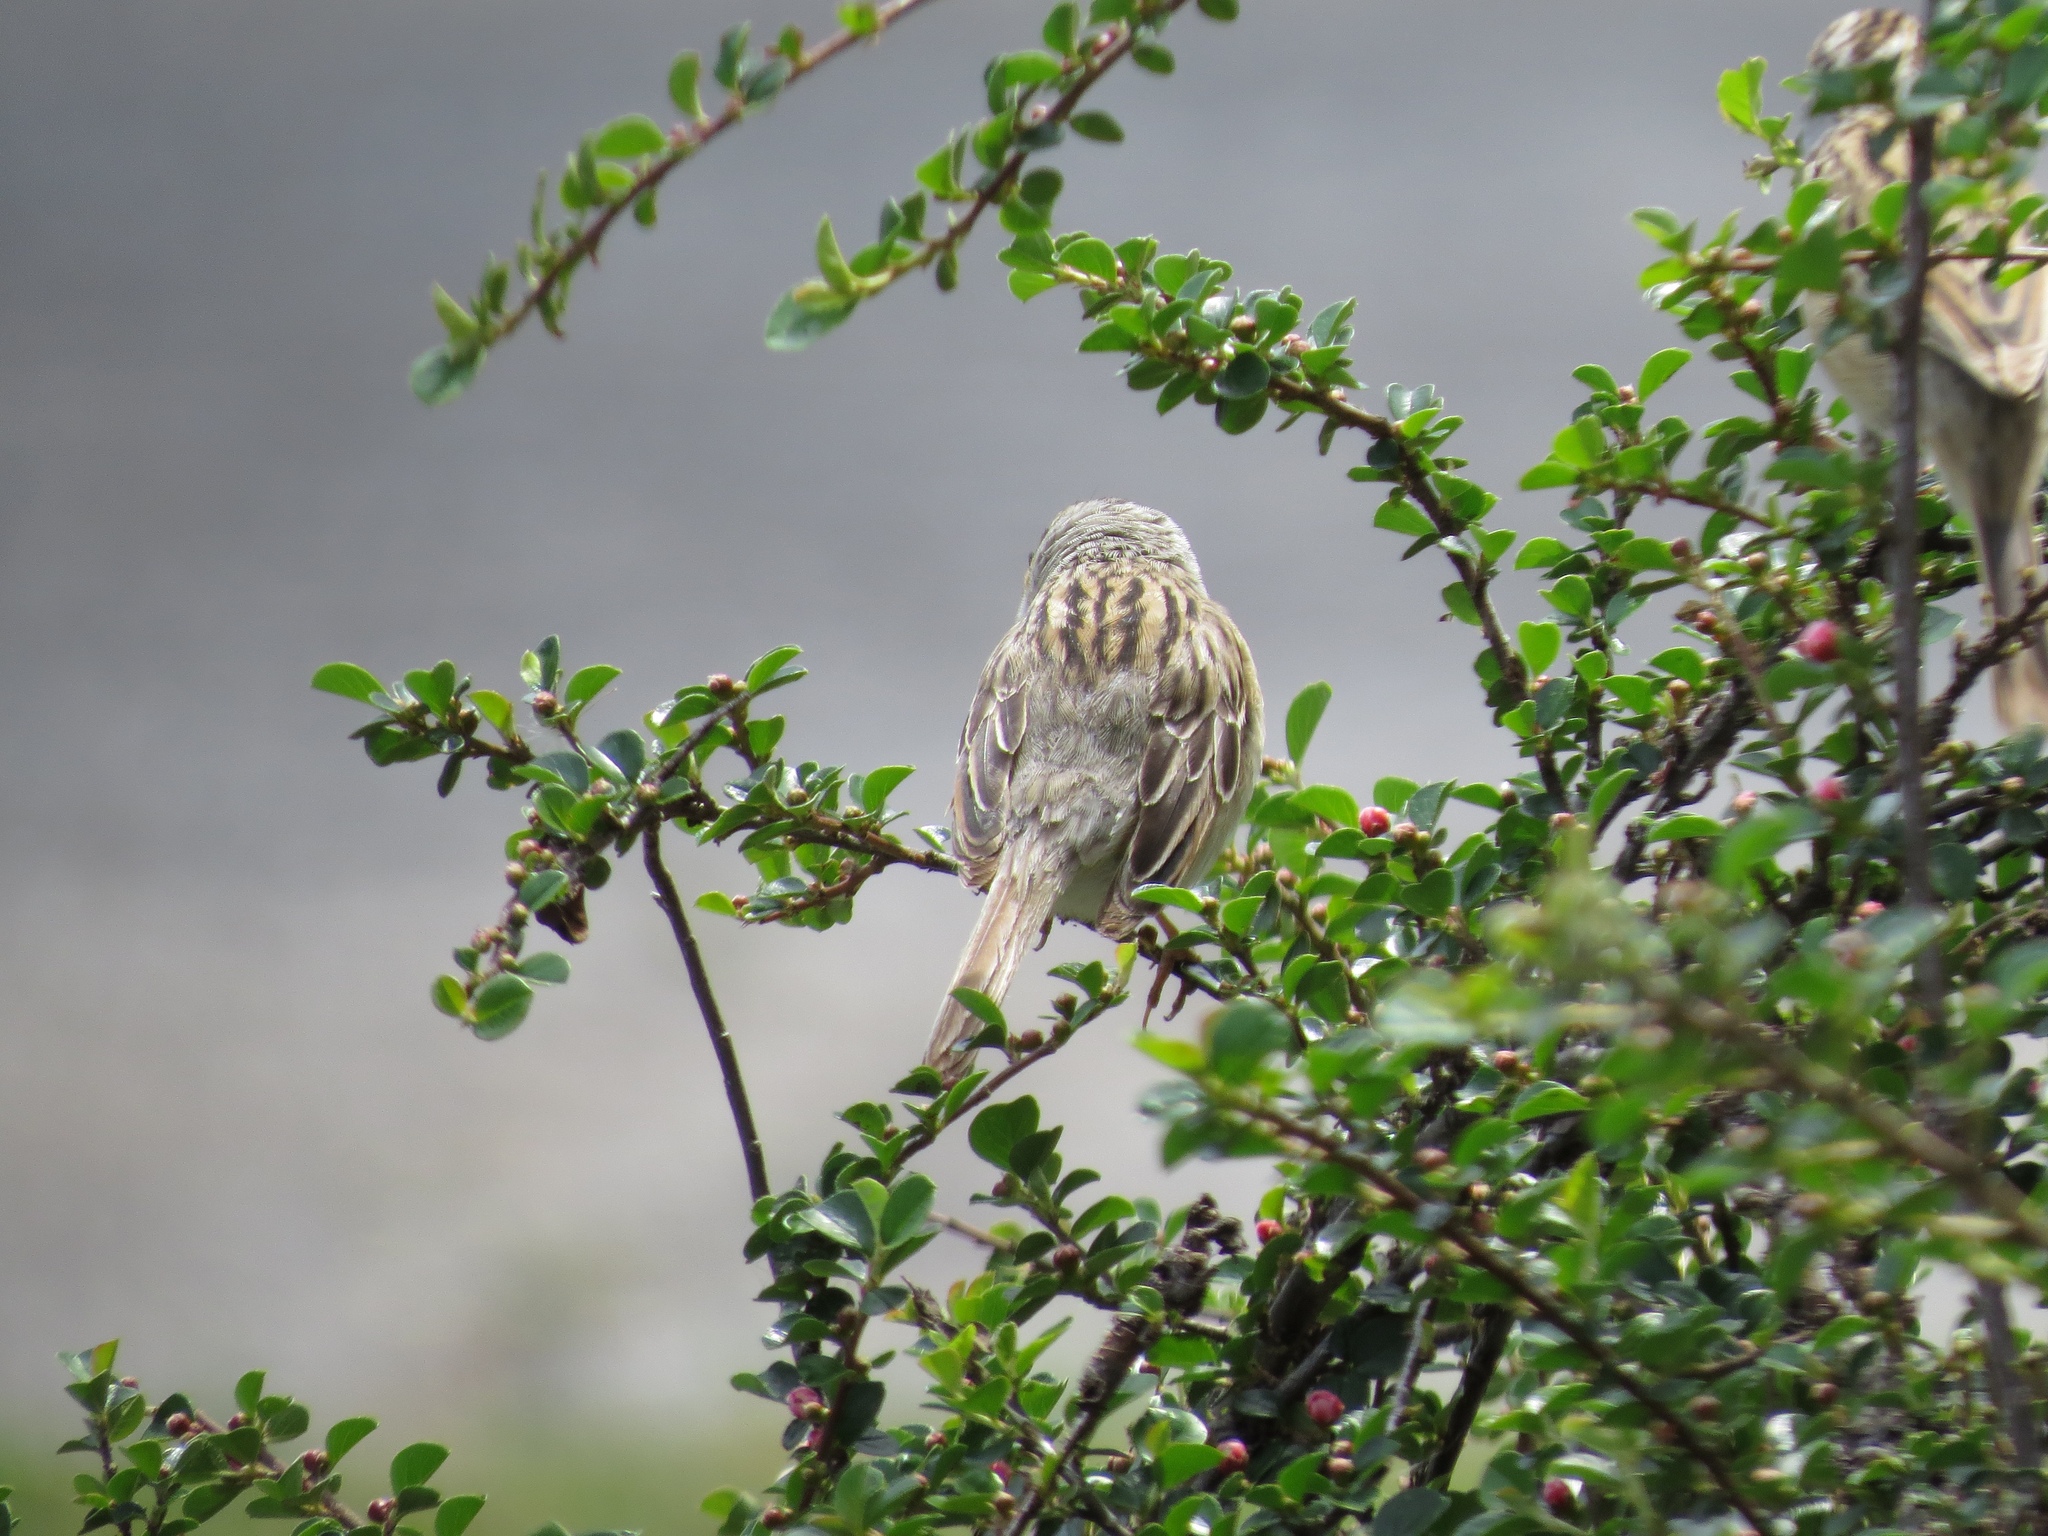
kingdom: Animalia
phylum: Chordata
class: Aves
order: Passeriformes
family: Passerellidae
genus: Spizella
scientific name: Spizella pallida
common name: Clay-colored sparrow
